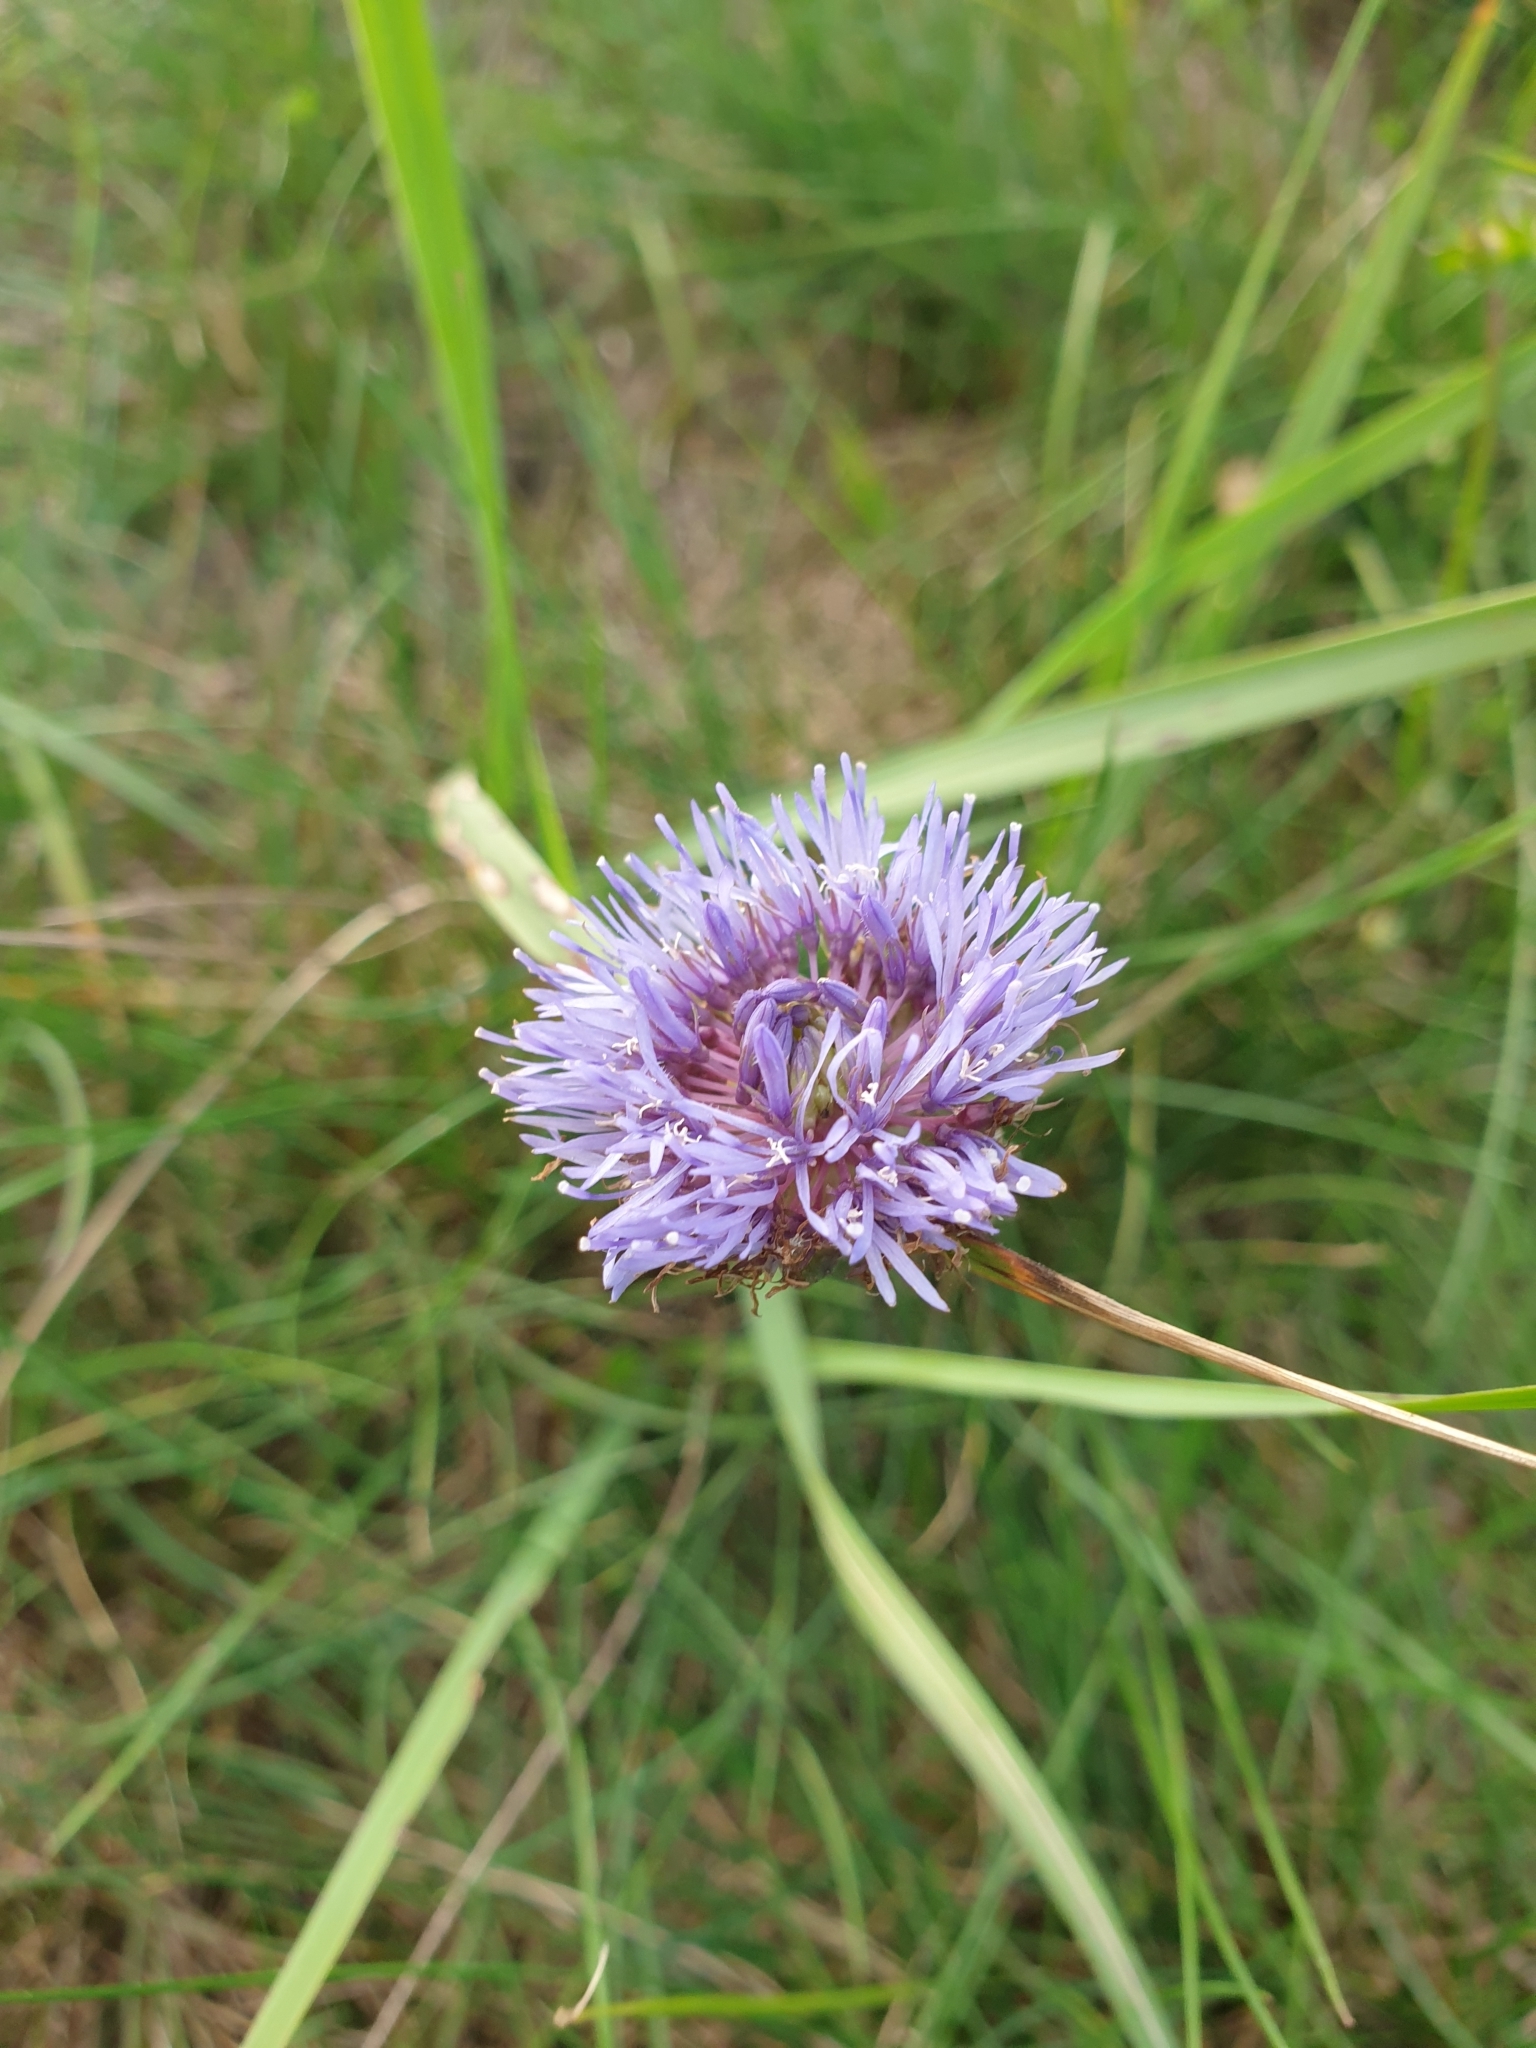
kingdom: Plantae
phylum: Tracheophyta
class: Magnoliopsida
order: Asterales
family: Campanulaceae
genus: Jasione
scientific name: Jasione montana
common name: Sheep's-bit
